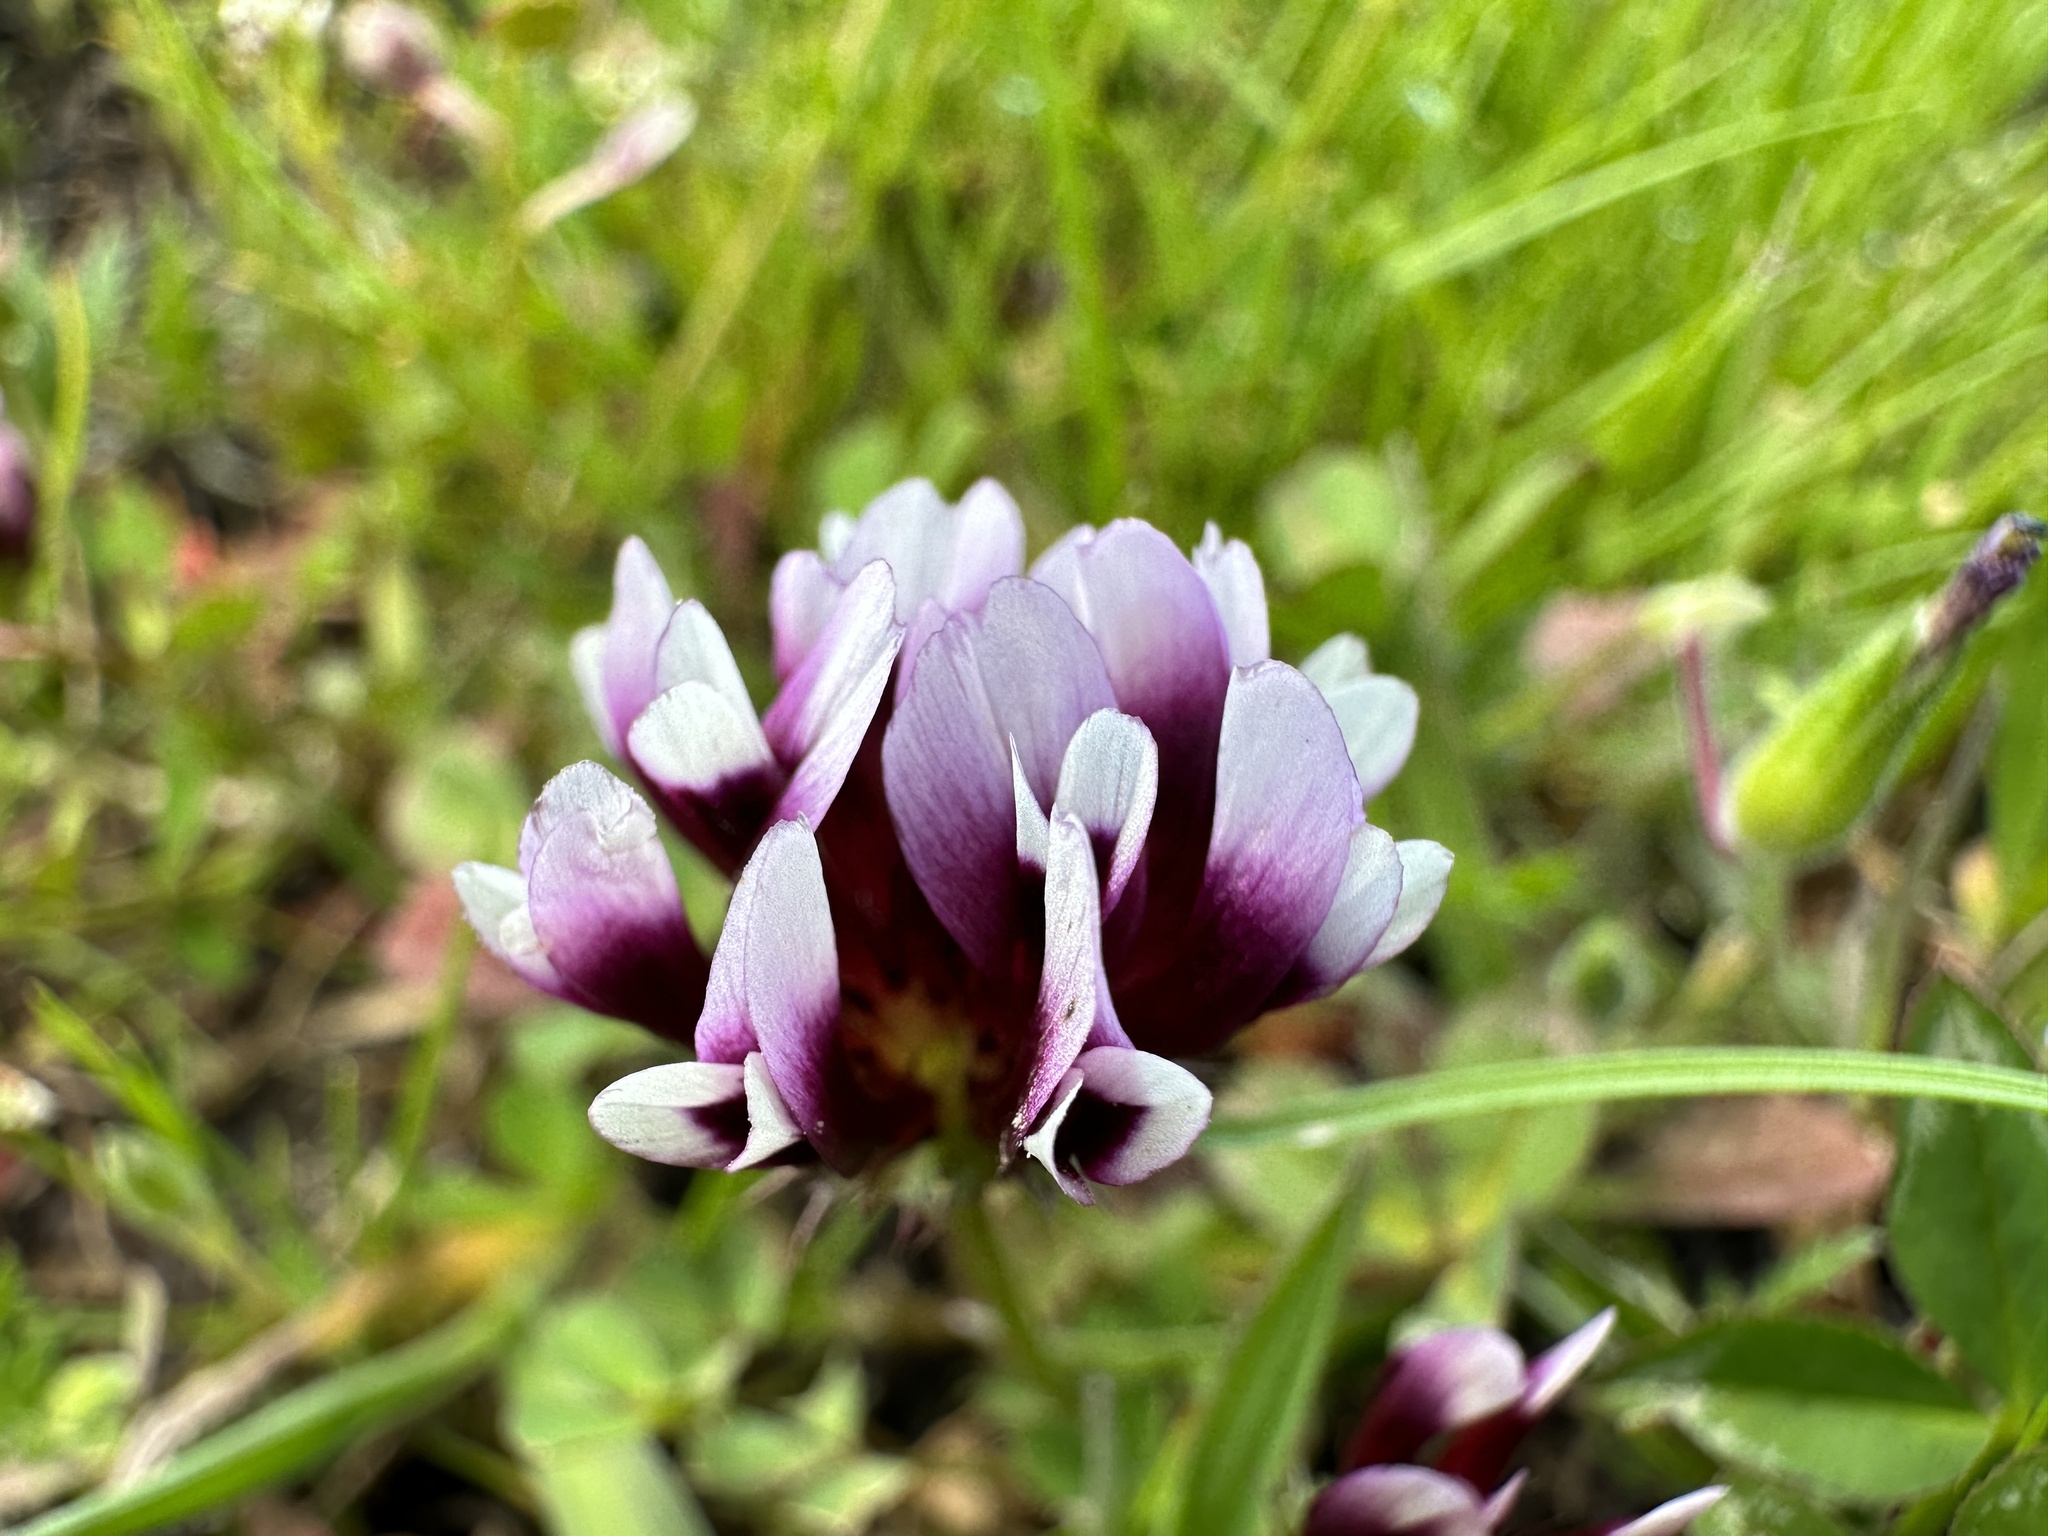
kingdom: Plantae
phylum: Tracheophyta
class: Magnoliopsida
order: Fabales
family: Fabaceae
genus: Trifolium
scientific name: Trifolium variegatum
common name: Whitetip clover
